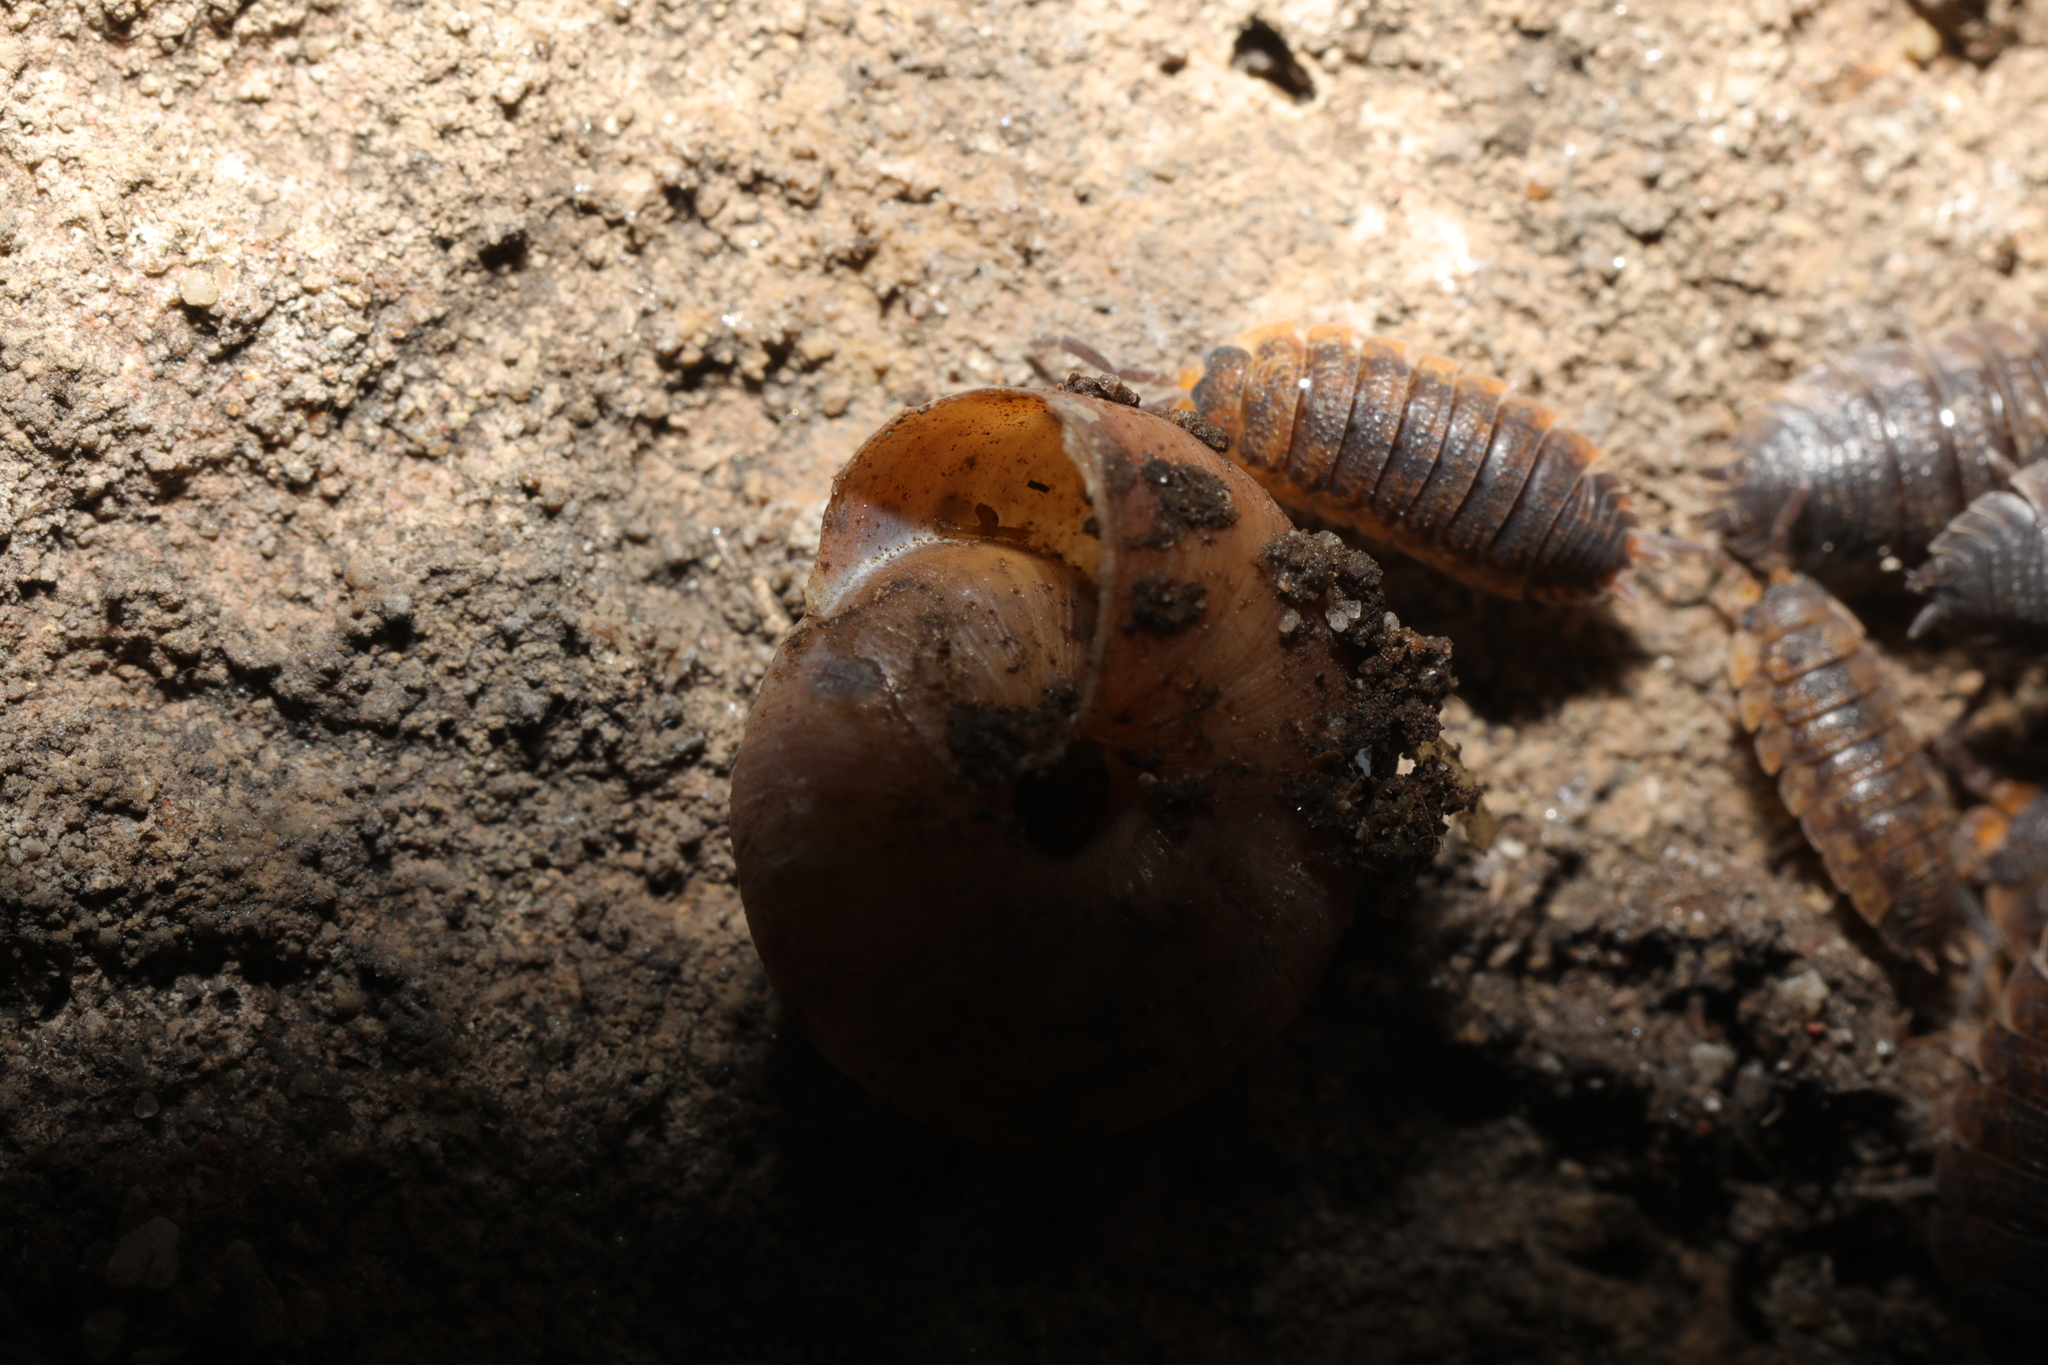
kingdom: Animalia
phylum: Mollusca
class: Gastropoda
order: Stylommatophora
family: Hygromiidae
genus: Trochulus
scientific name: Trochulus striolatus
